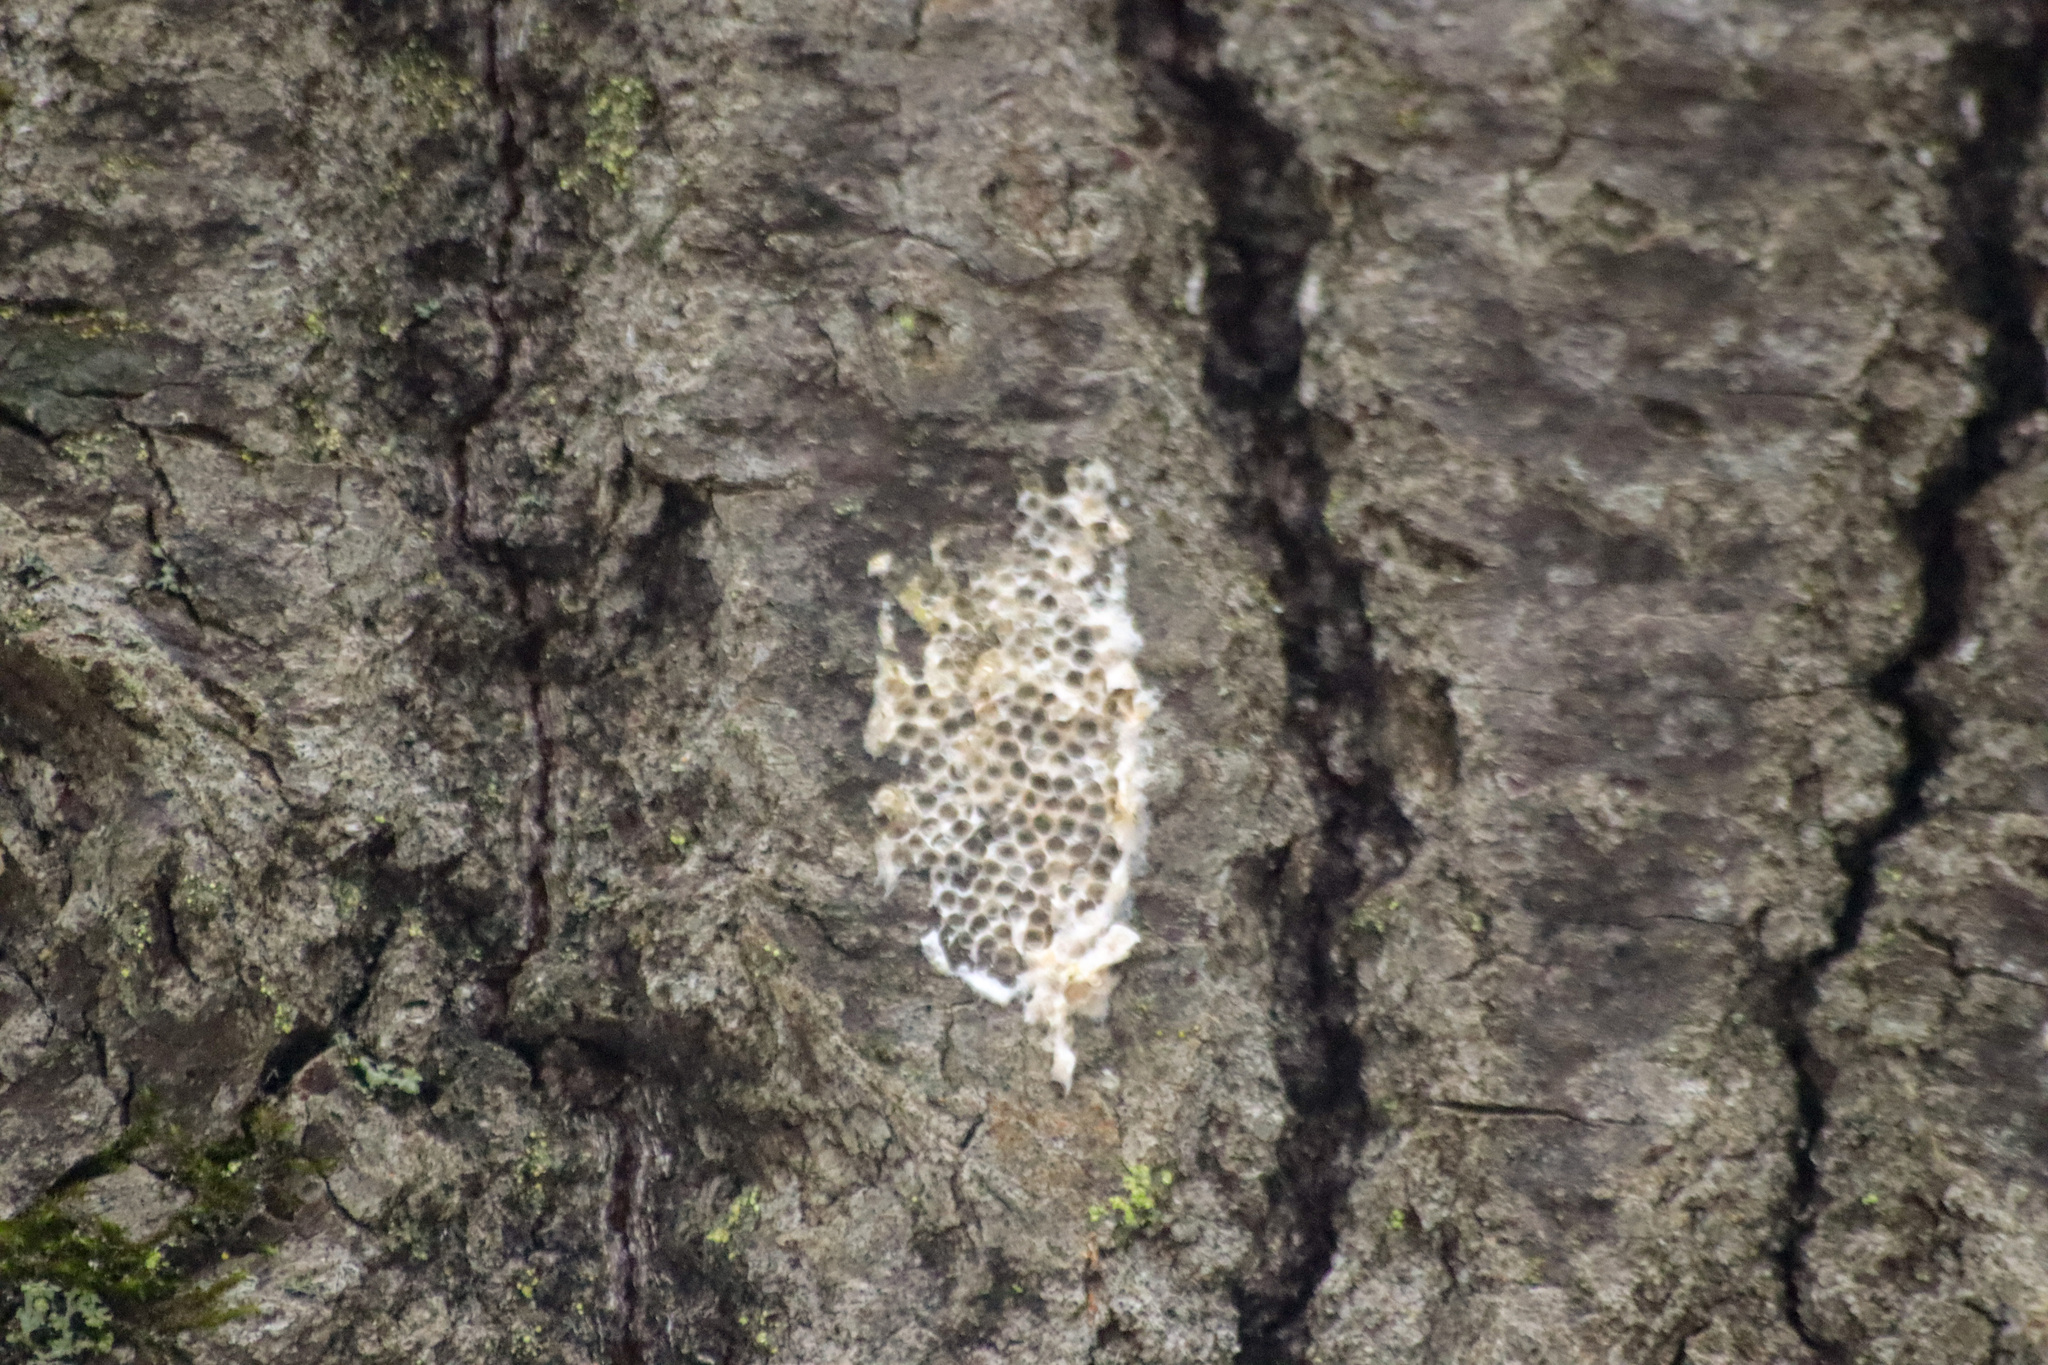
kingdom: Animalia
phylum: Arthropoda
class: Insecta
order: Lepidoptera
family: Erebidae
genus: Lymantria
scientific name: Lymantria dispar
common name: Gypsy moth
